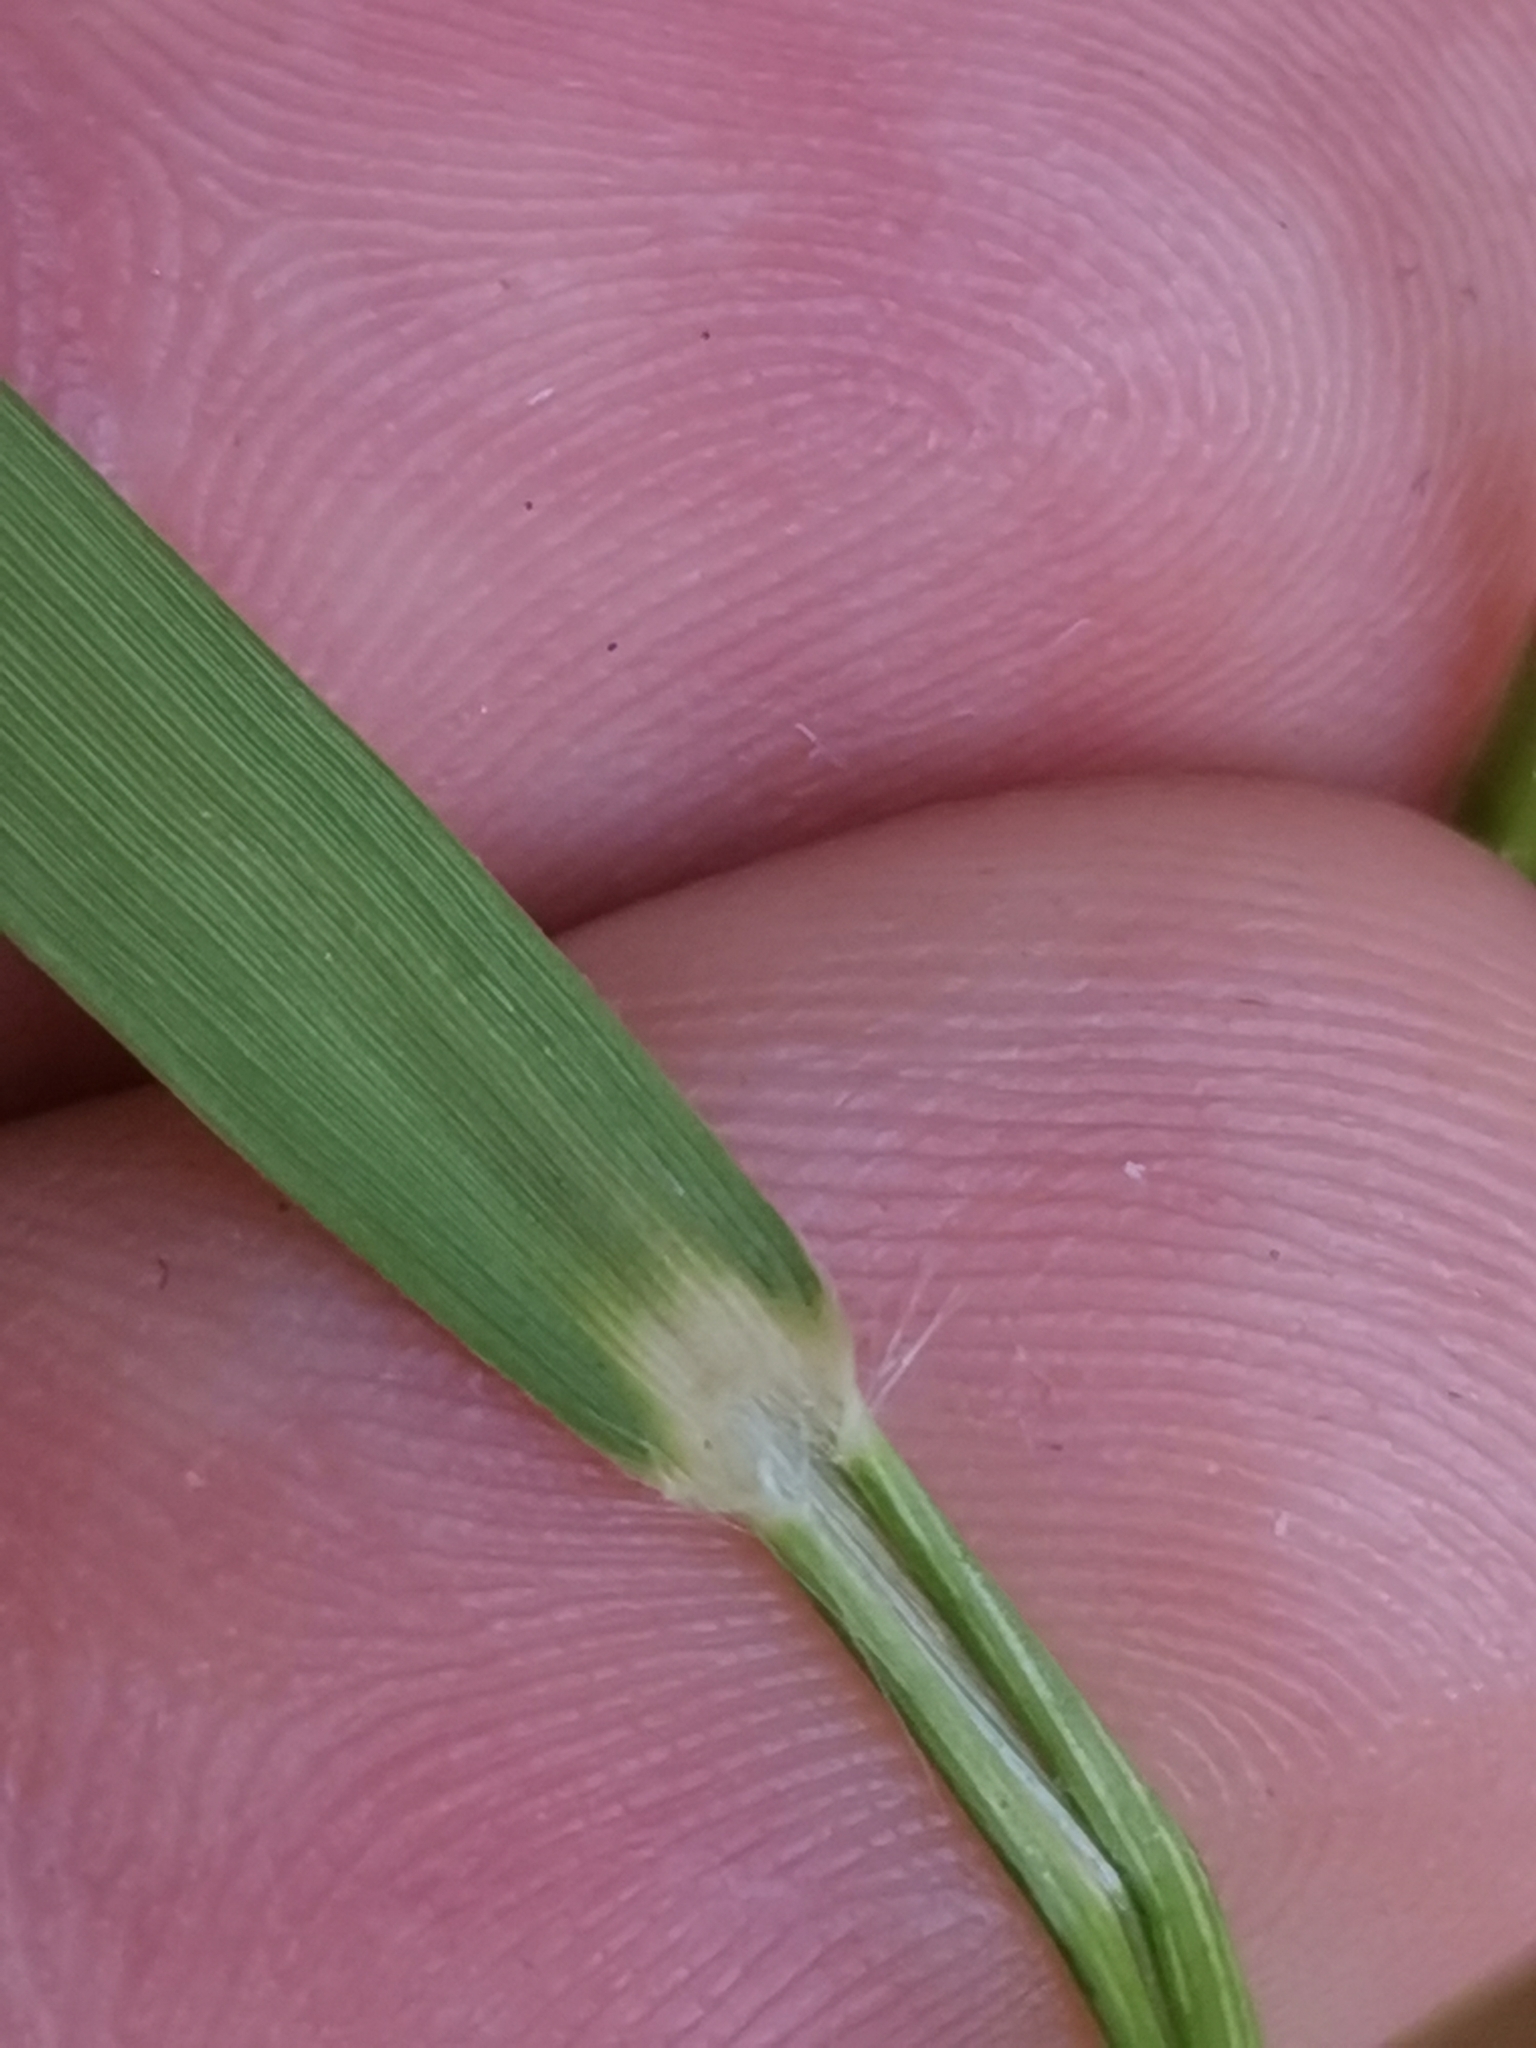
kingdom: Plantae
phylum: Tracheophyta
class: Liliopsida
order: Poales
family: Poaceae
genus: Danthonia
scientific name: Danthonia alpina
